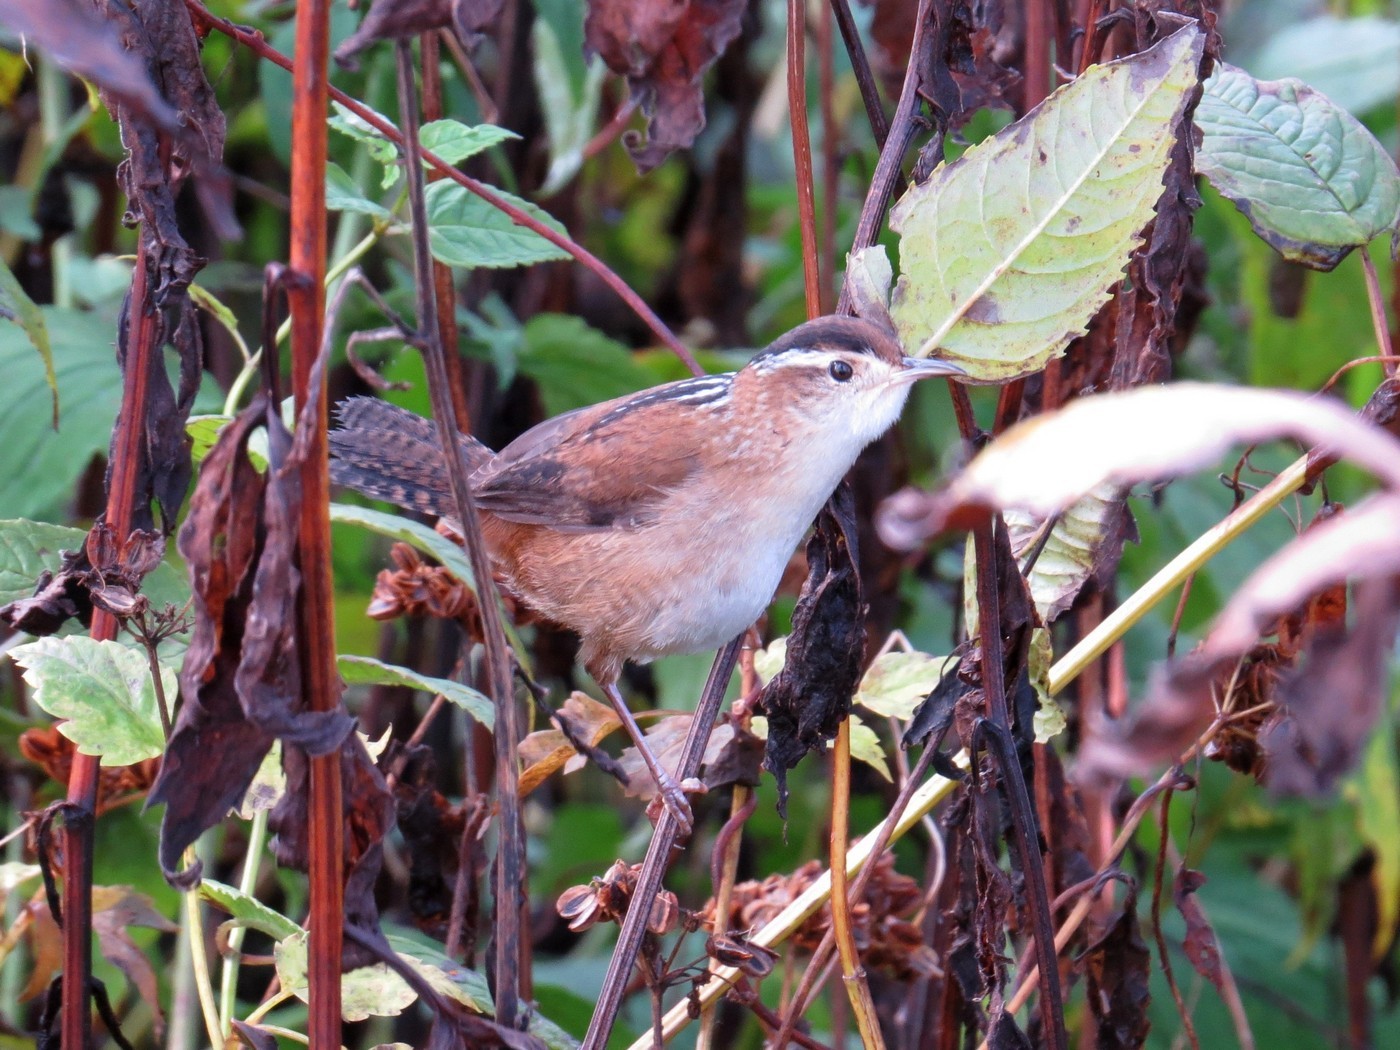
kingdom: Animalia
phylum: Chordata
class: Aves
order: Passeriformes
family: Troglodytidae
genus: Cistothorus
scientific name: Cistothorus palustris
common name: Marsh wren
